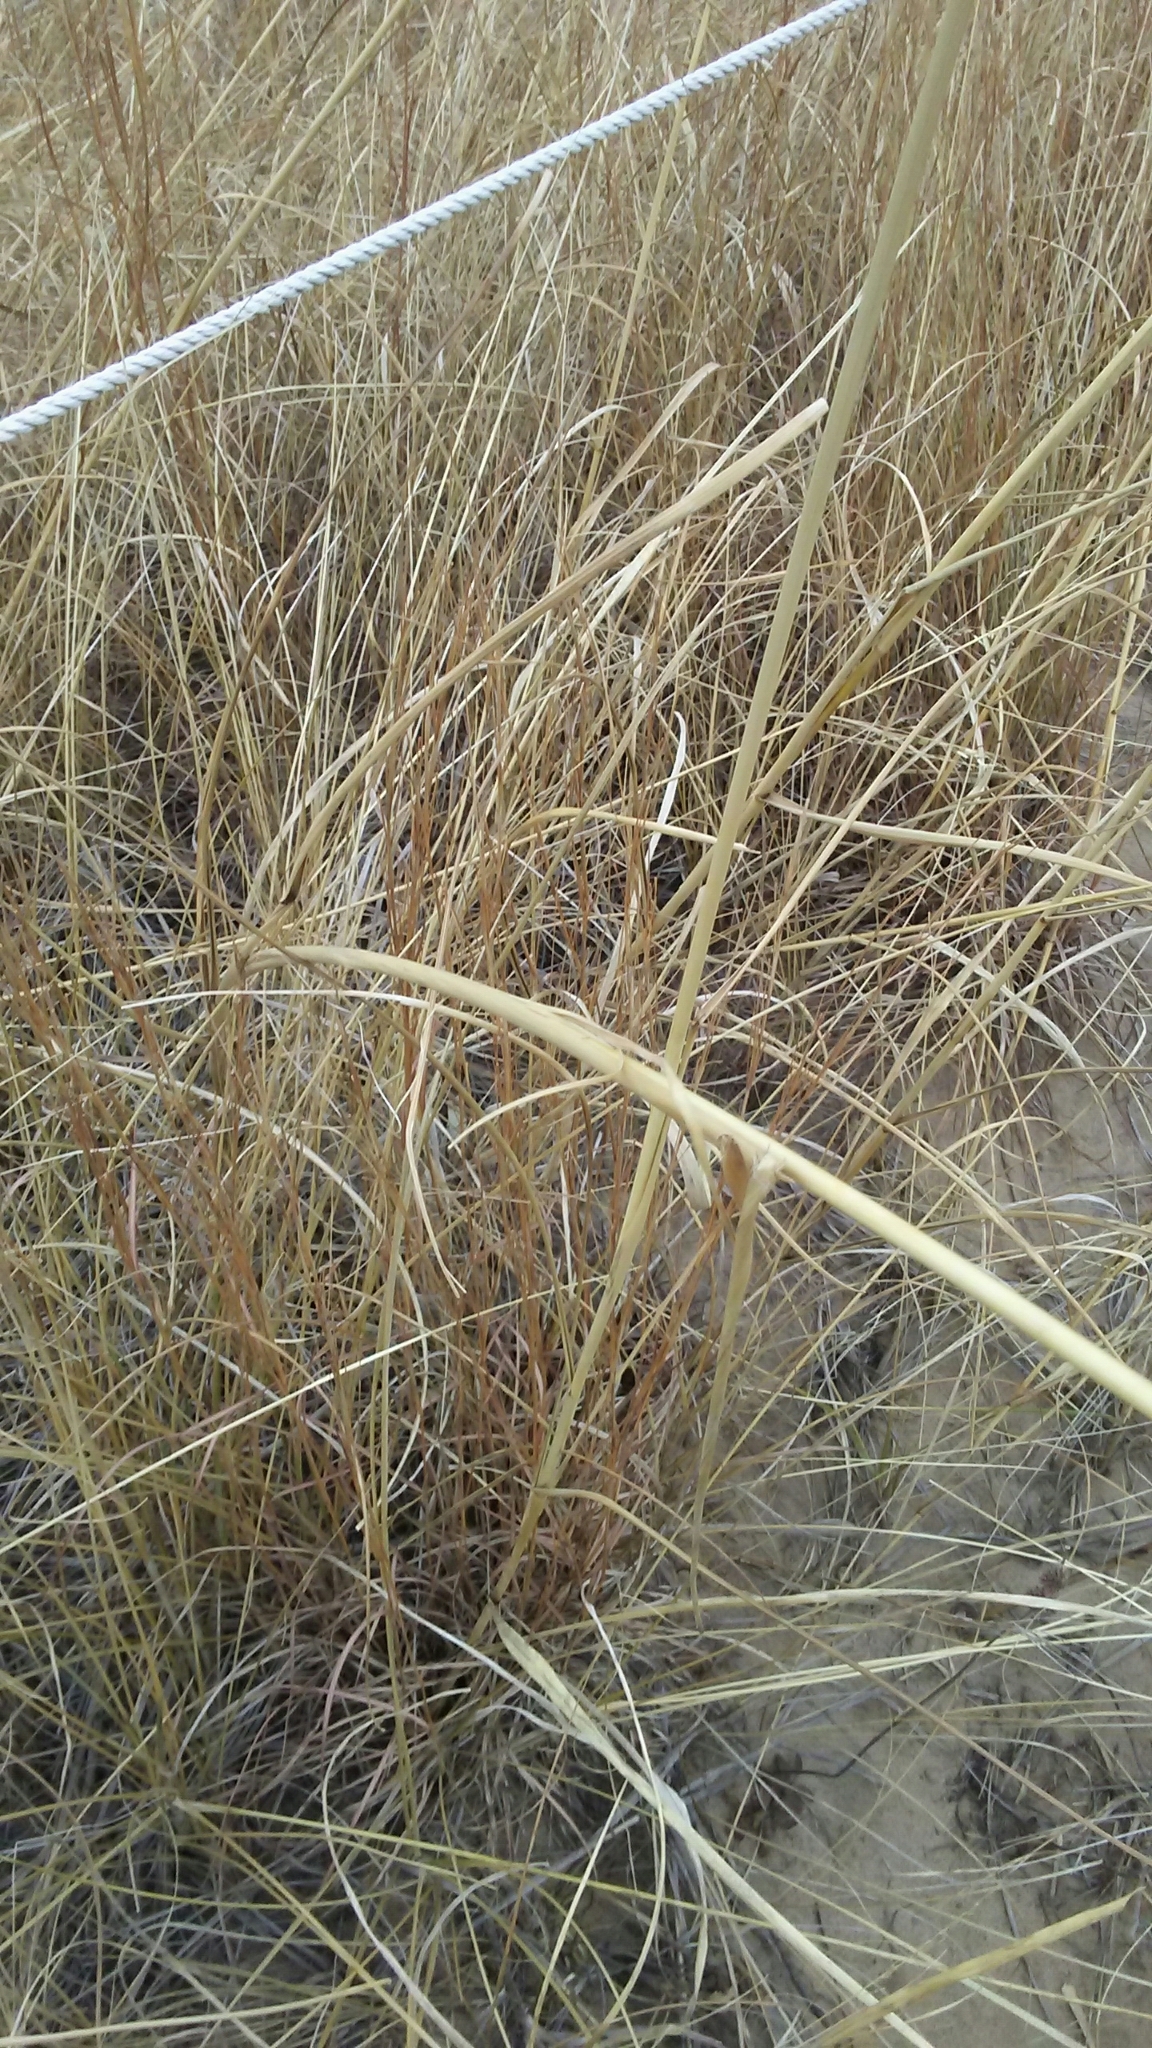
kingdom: Plantae
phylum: Tracheophyta
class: Liliopsida
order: Poales
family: Poaceae
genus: Sporobolus
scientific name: Sporobolus rigidus
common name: Prairie sandreed
